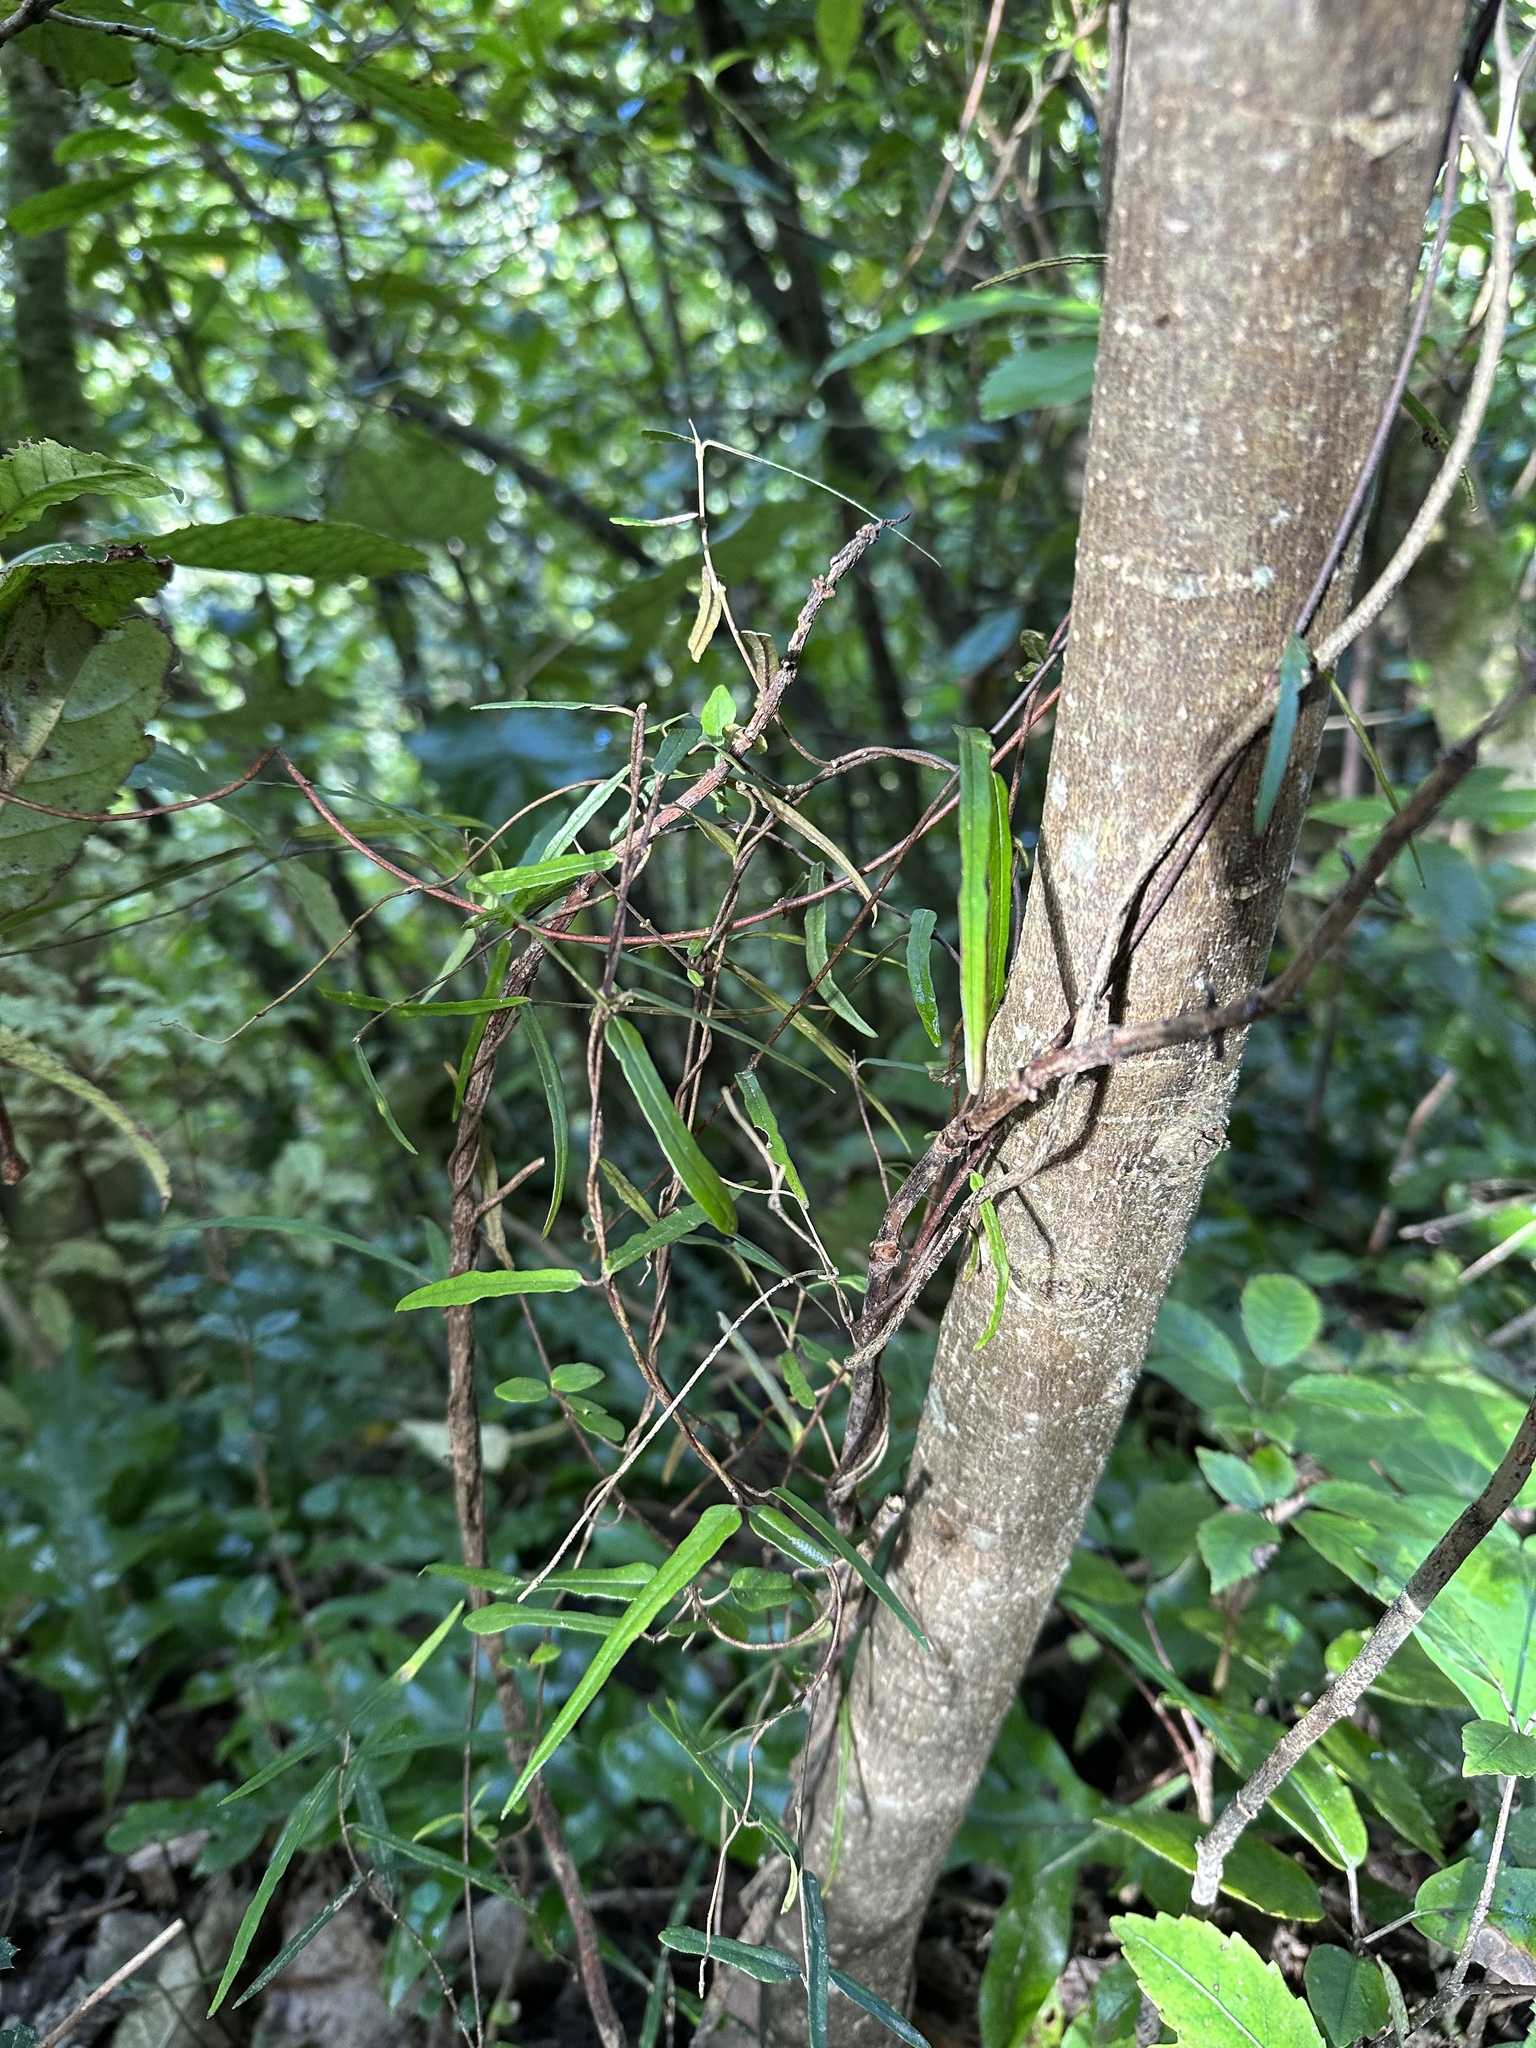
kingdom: Plantae
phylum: Tracheophyta
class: Magnoliopsida
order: Gentianales
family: Apocynaceae
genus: Parsonsia
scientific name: Parsonsia capsularis
